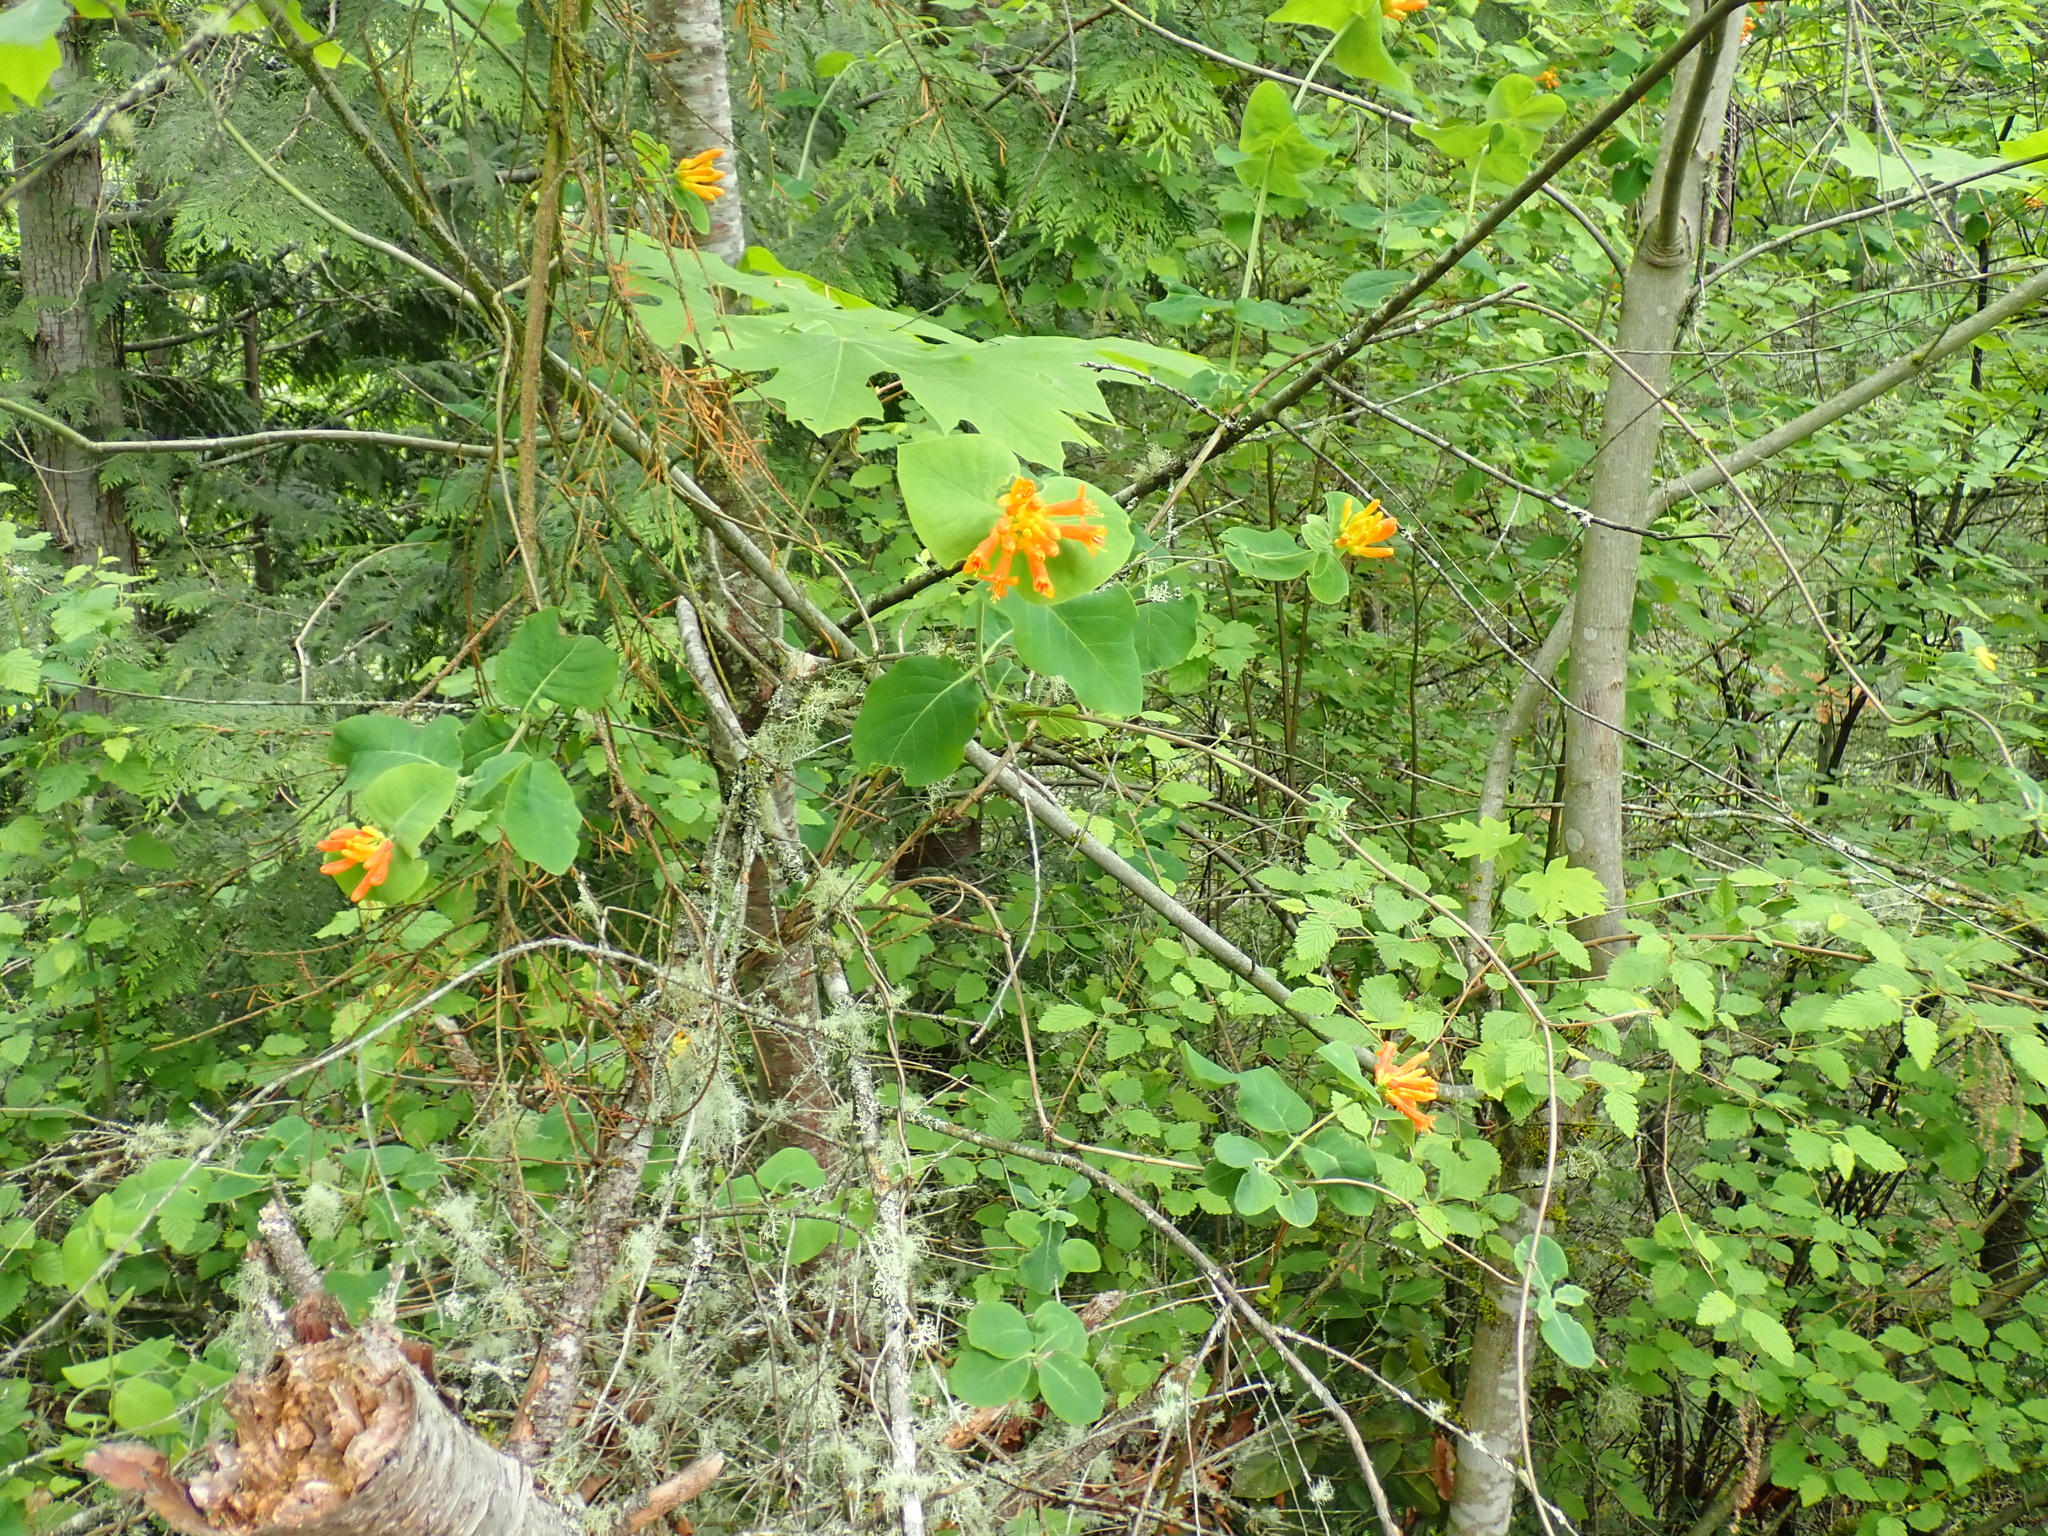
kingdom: Plantae
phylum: Tracheophyta
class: Magnoliopsida
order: Dipsacales
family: Caprifoliaceae
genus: Lonicera
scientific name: Lonicera ciliosa
